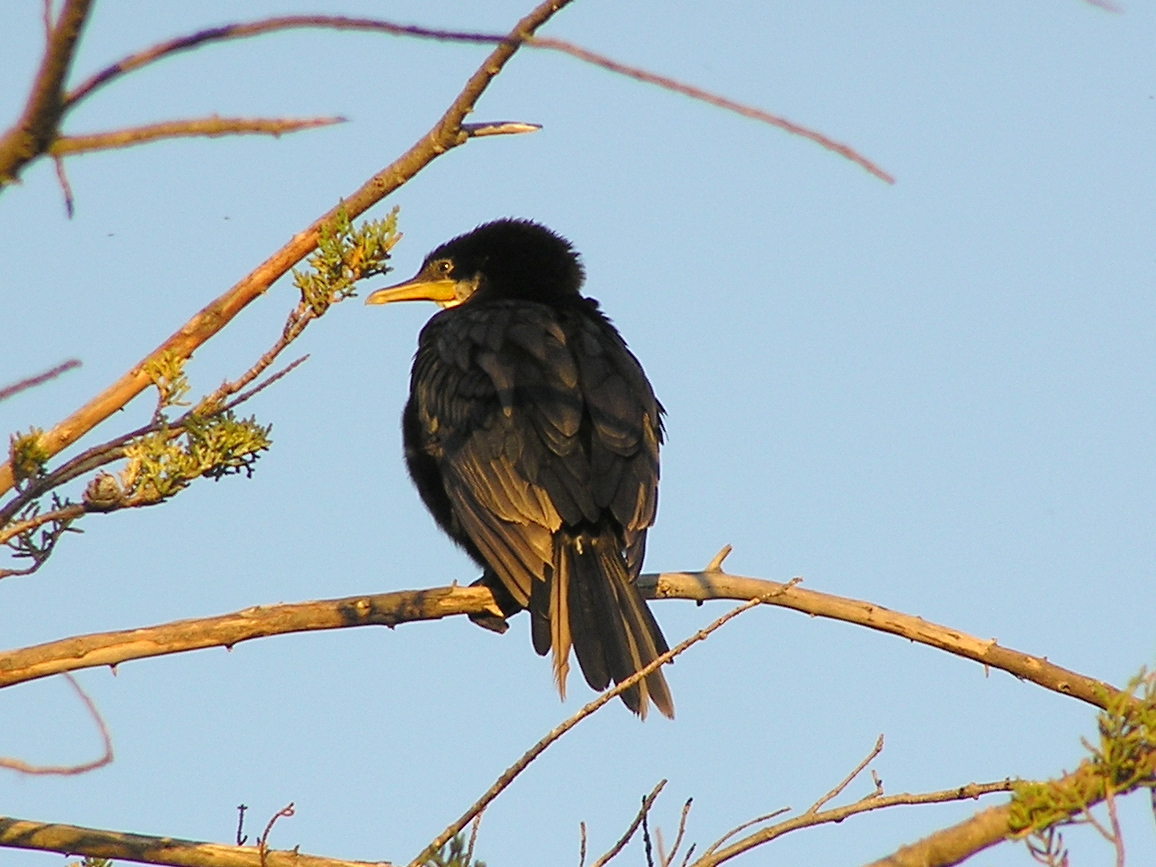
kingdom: Animalia
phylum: Chordata
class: Aves
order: Suliformes
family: Phalacrocoracidae
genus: Microcarbo
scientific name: Microcarbo melanoleucos
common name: Little pied cormorant
